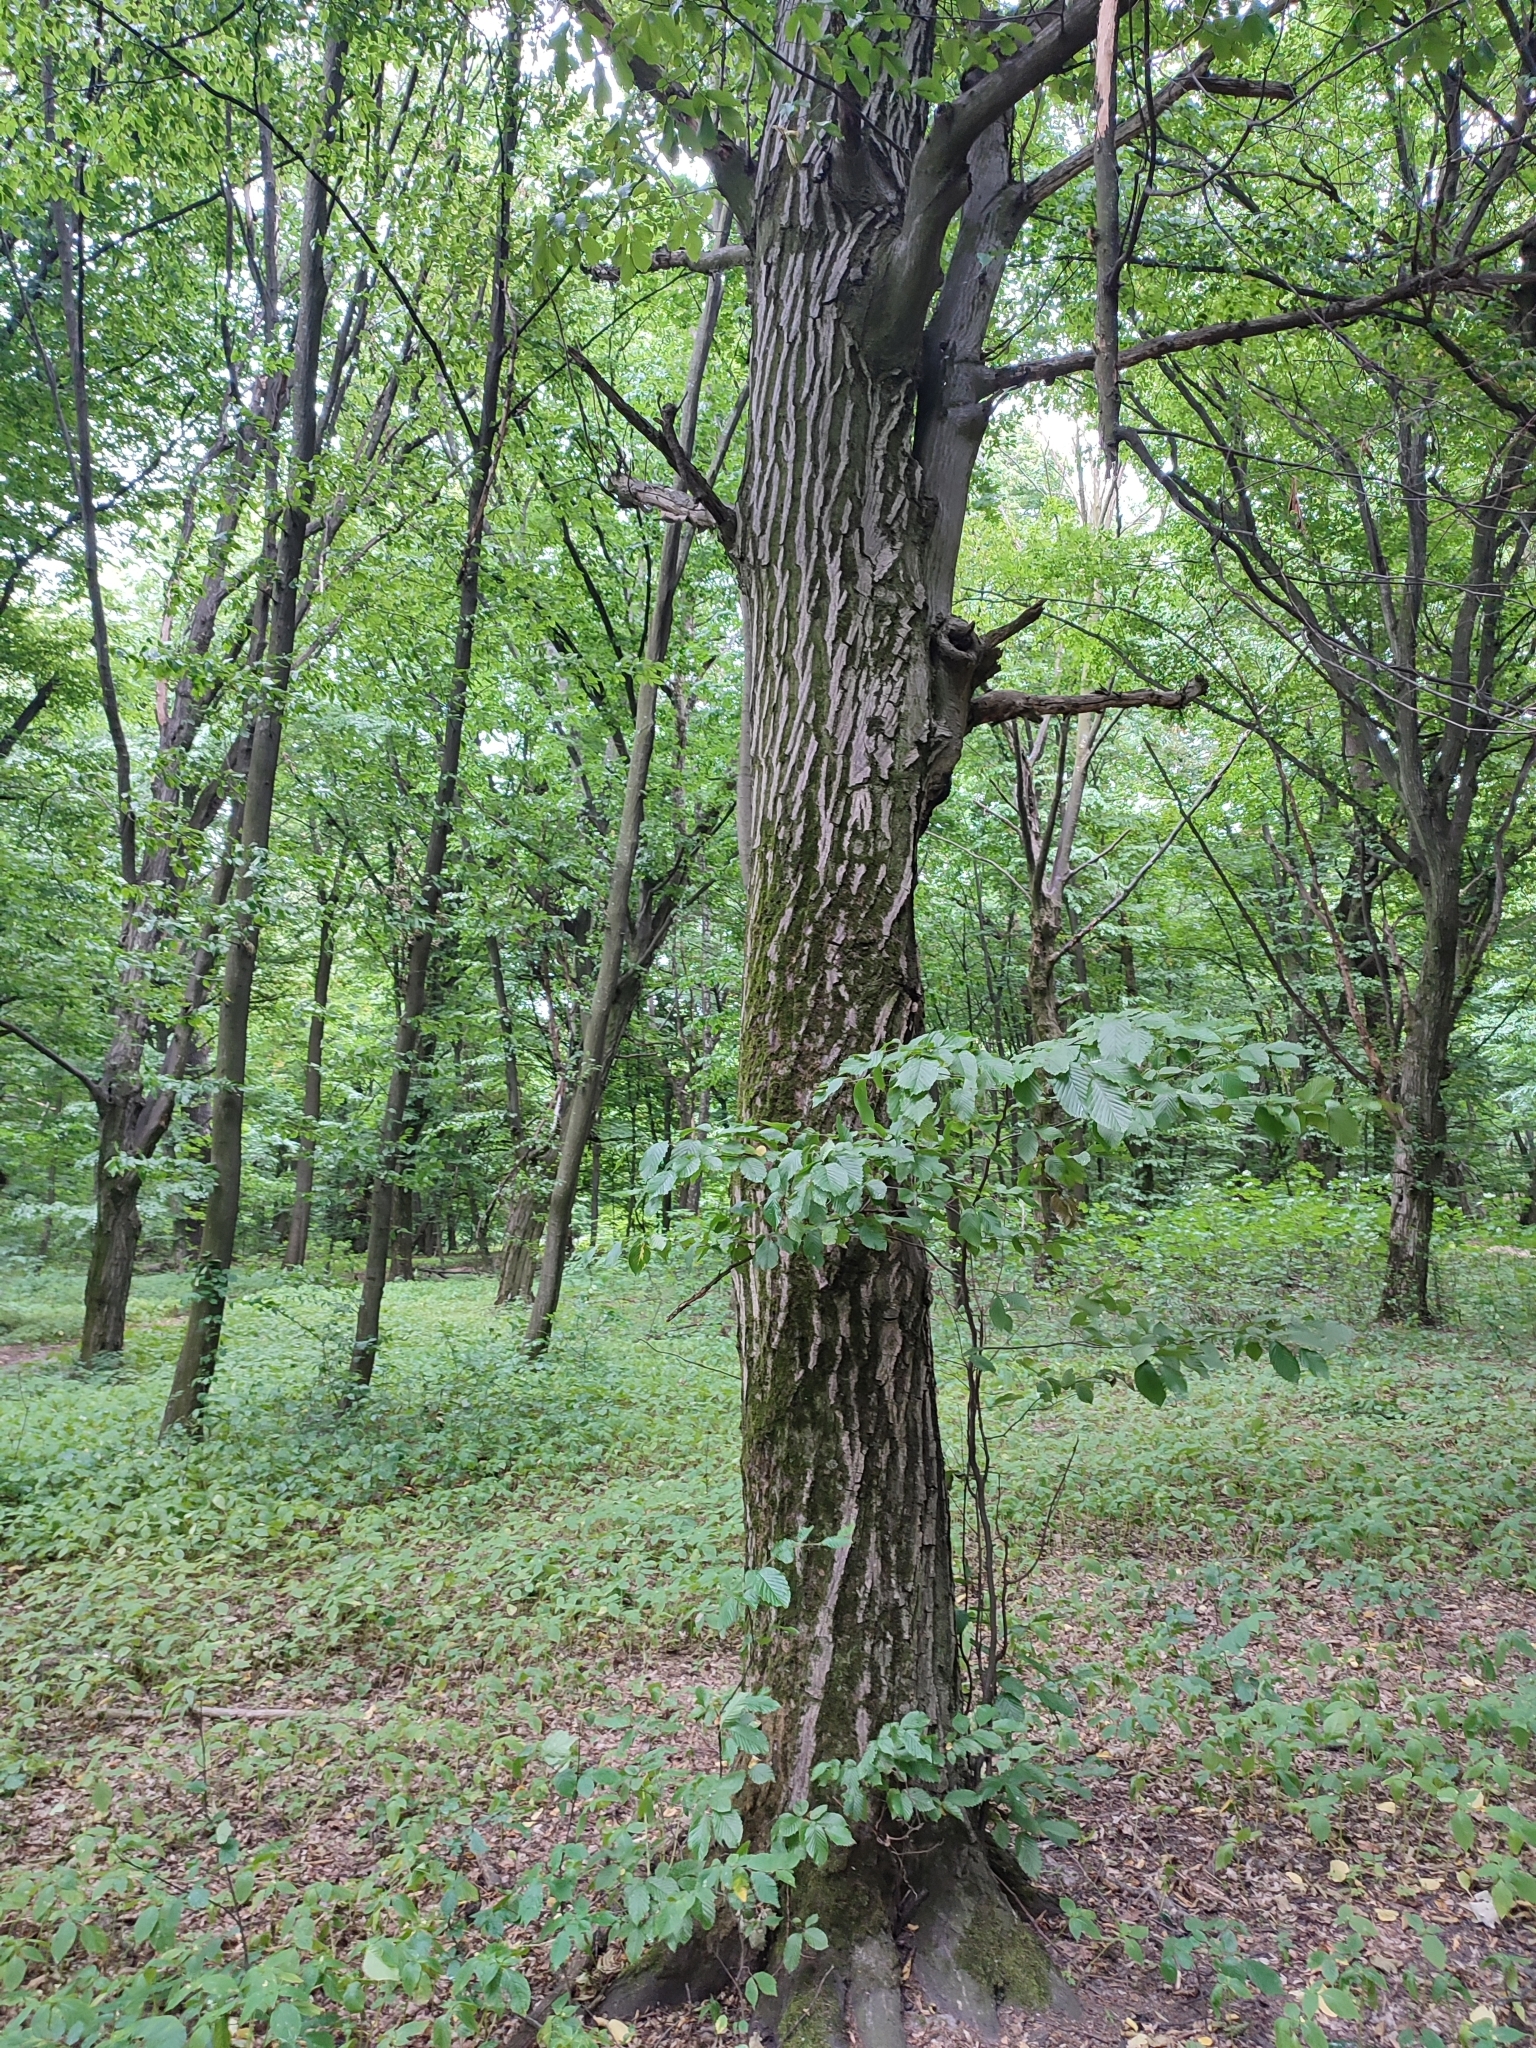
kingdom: Plantae
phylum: Tracheophyta
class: Magnoliopsida
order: Fagales
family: Betulaceae
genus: Carpinus
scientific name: Carpinus betulus
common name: Hornbeam
